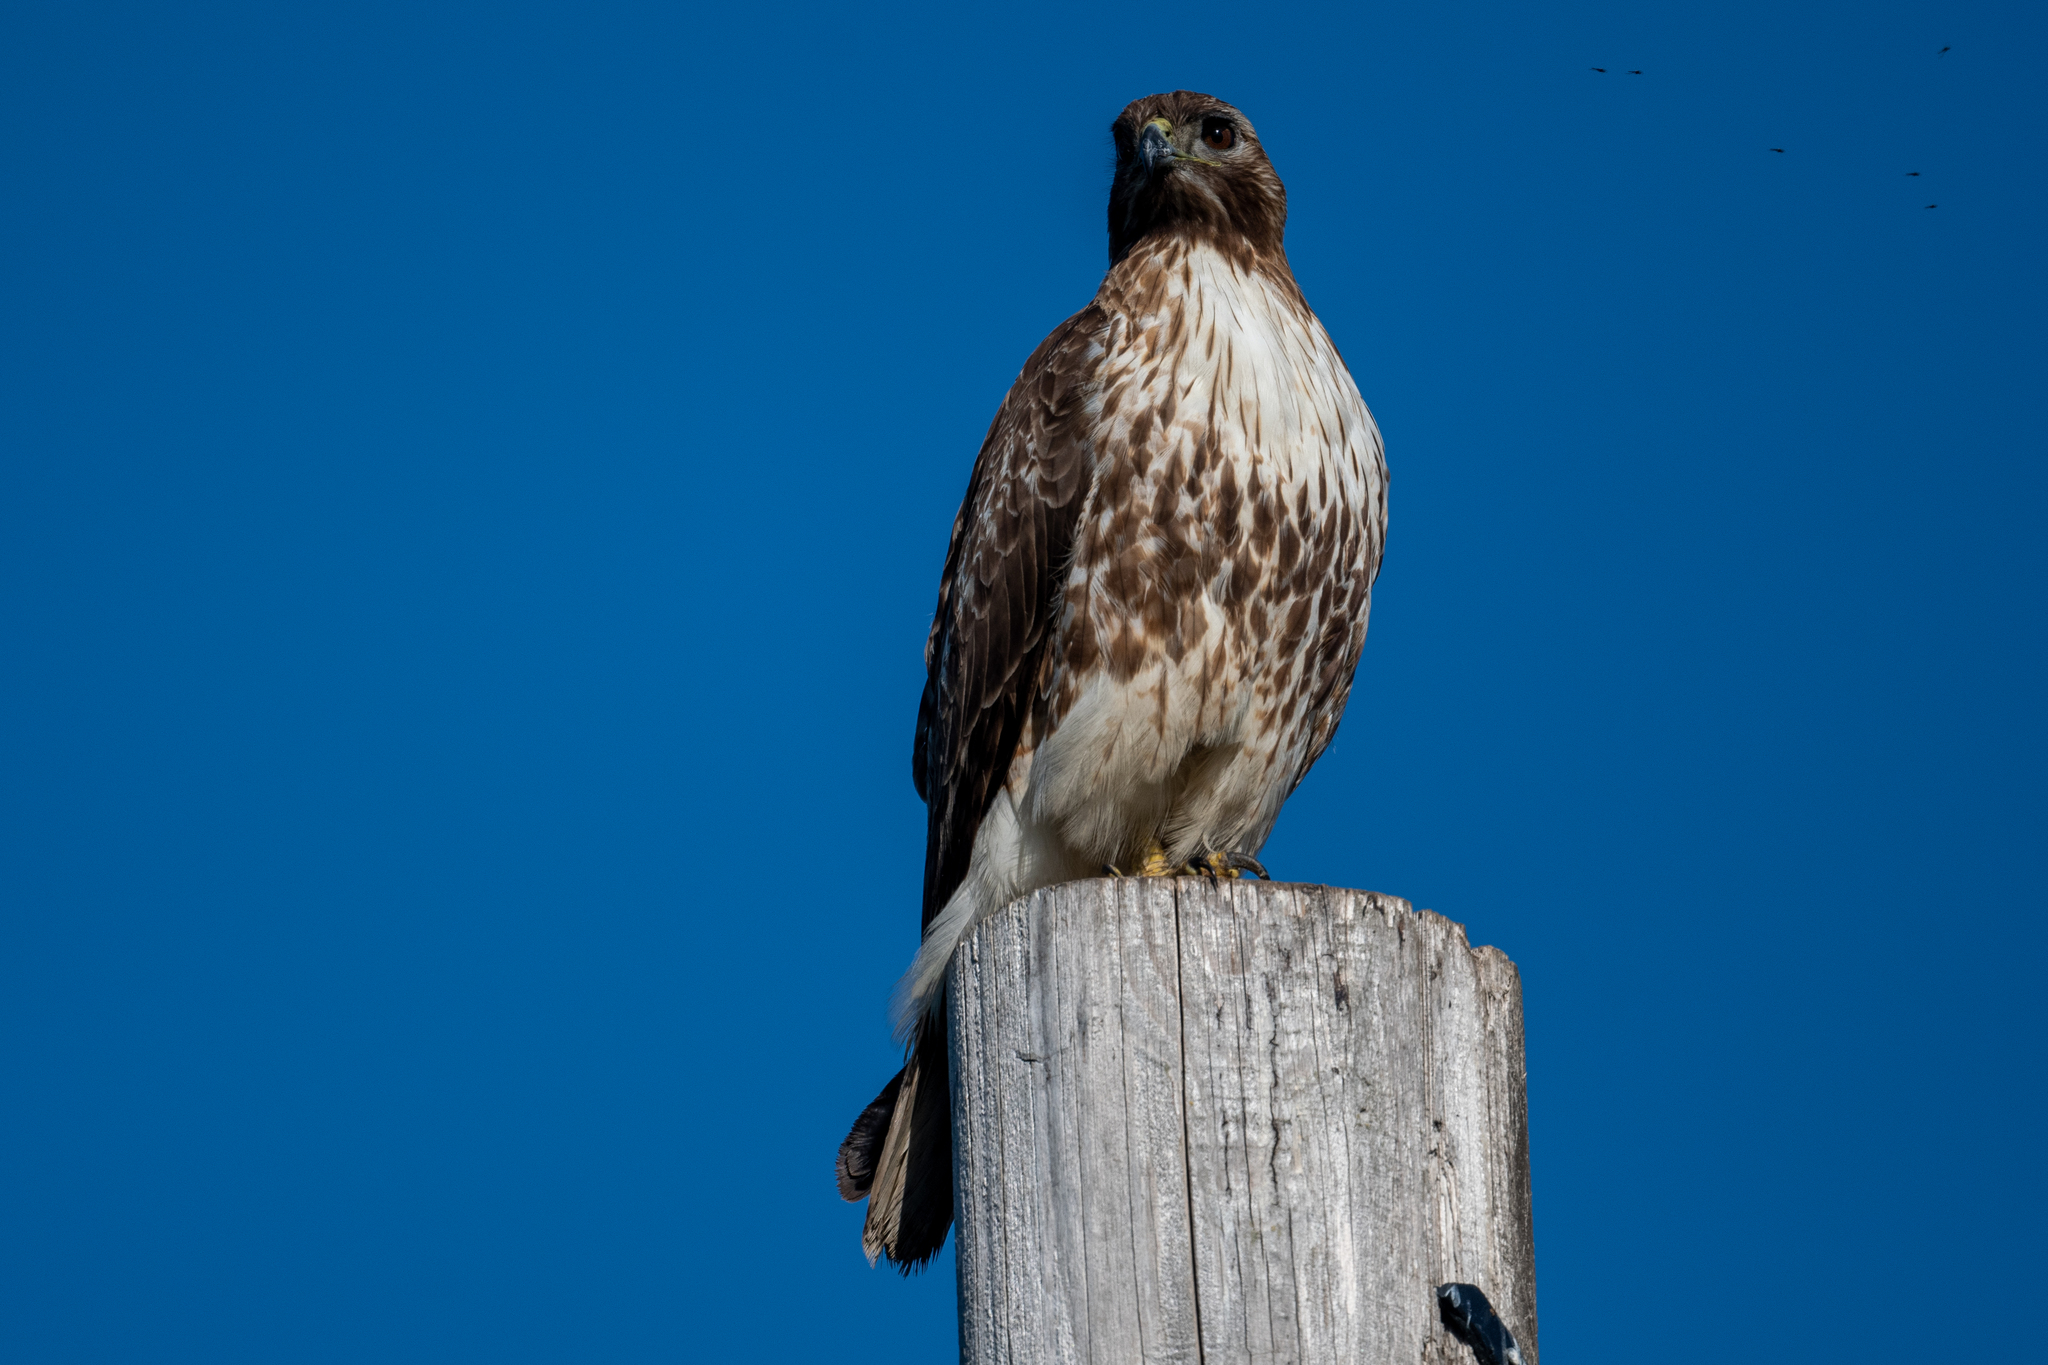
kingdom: Animalia
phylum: Chordata
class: Aves
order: Accipitriformes
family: Accipitridae
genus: Buteo
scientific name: Buteo jamaicensis
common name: Red-tailed hawk
